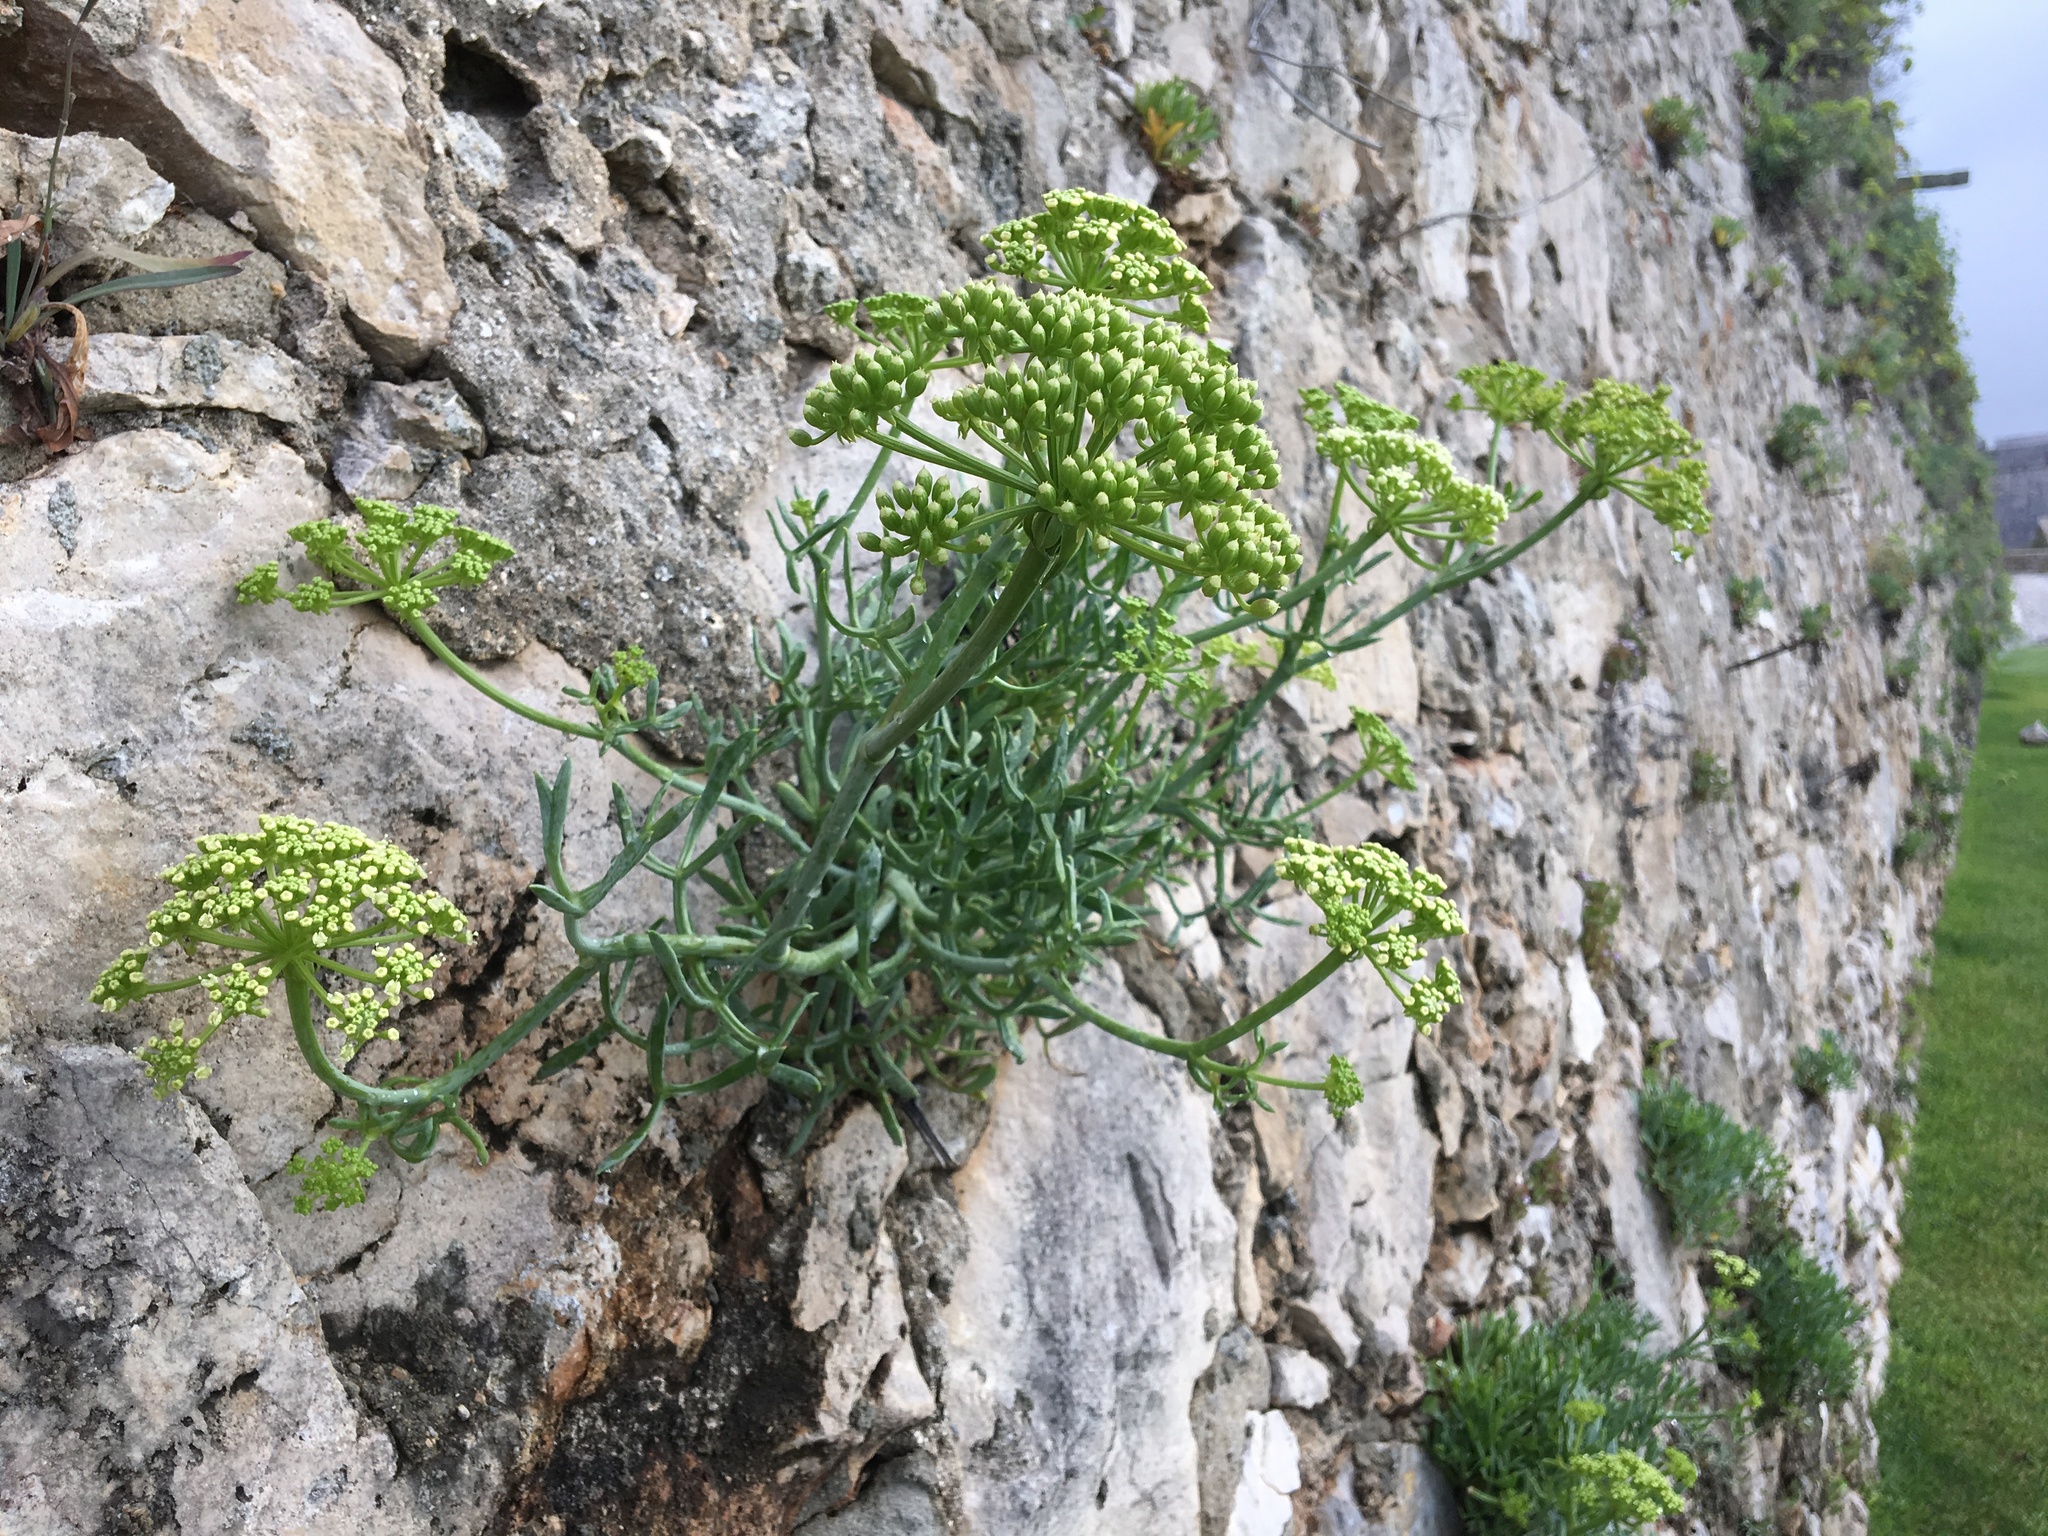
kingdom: Plantae
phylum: Tracheophyta
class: Magnoliopsida
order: Apiales
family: Apiaceae
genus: Crithmum
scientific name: Crithmum maritimum
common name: Rock samphire
